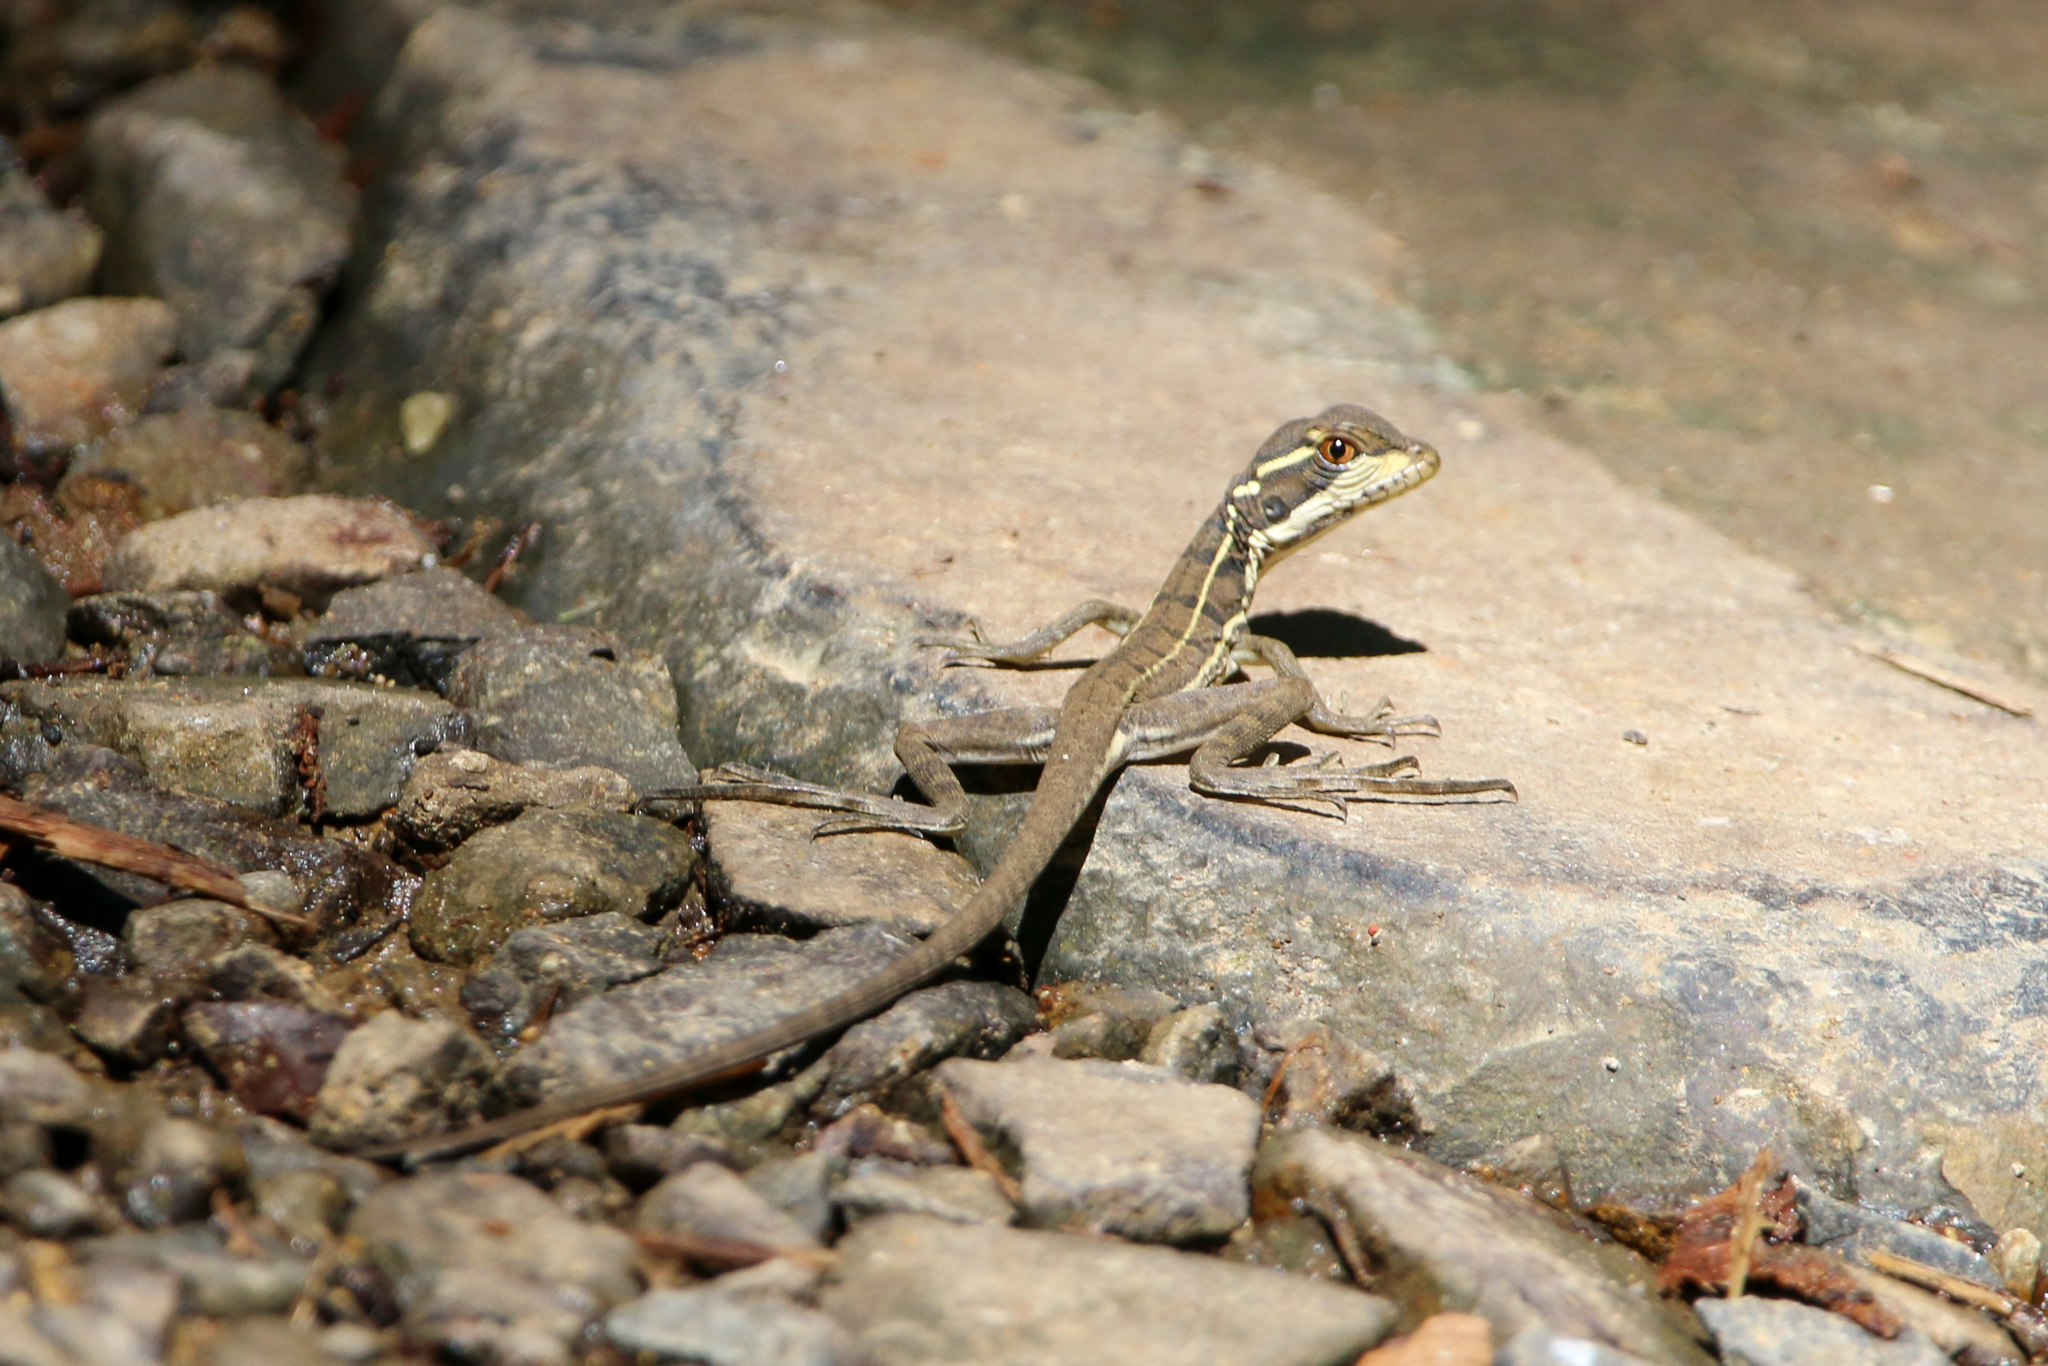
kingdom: Animalia
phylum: Chordata
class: Squamata
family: Corytophanidae
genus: Basiliscus
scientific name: Basiliscus basiliscus
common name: Common basilisk
